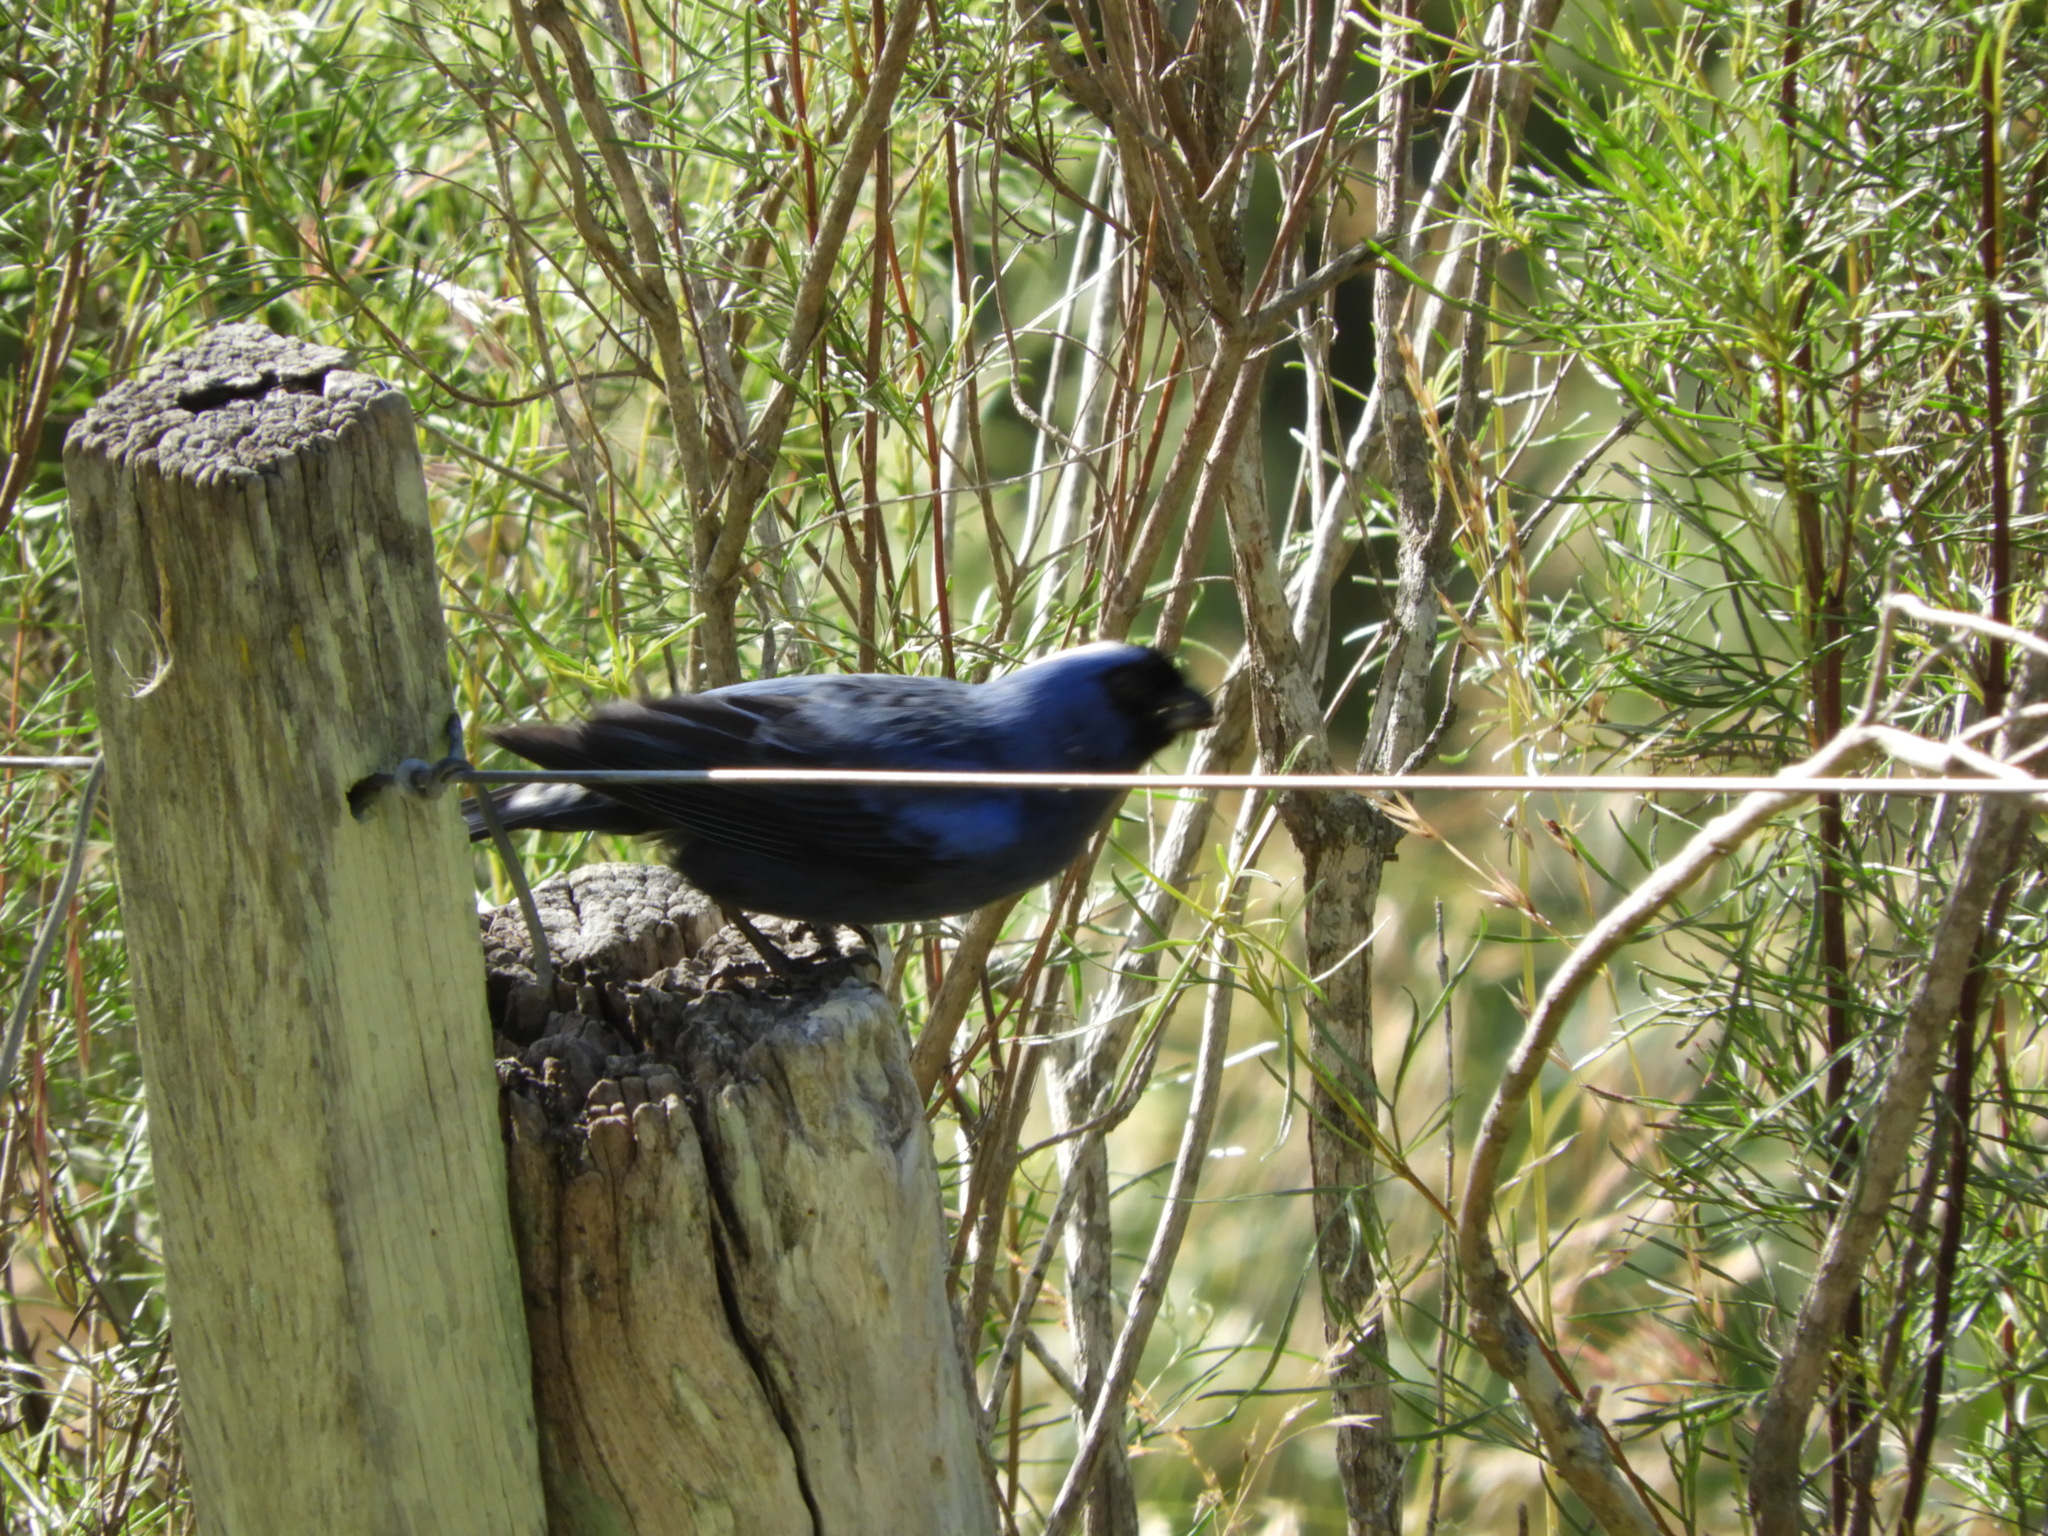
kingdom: Animalia
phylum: Chordata
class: Aves
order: Passeriformes
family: Thraupidae
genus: Stephanophorus
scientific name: Stephanophorus diadematus
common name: Diademed tanager
